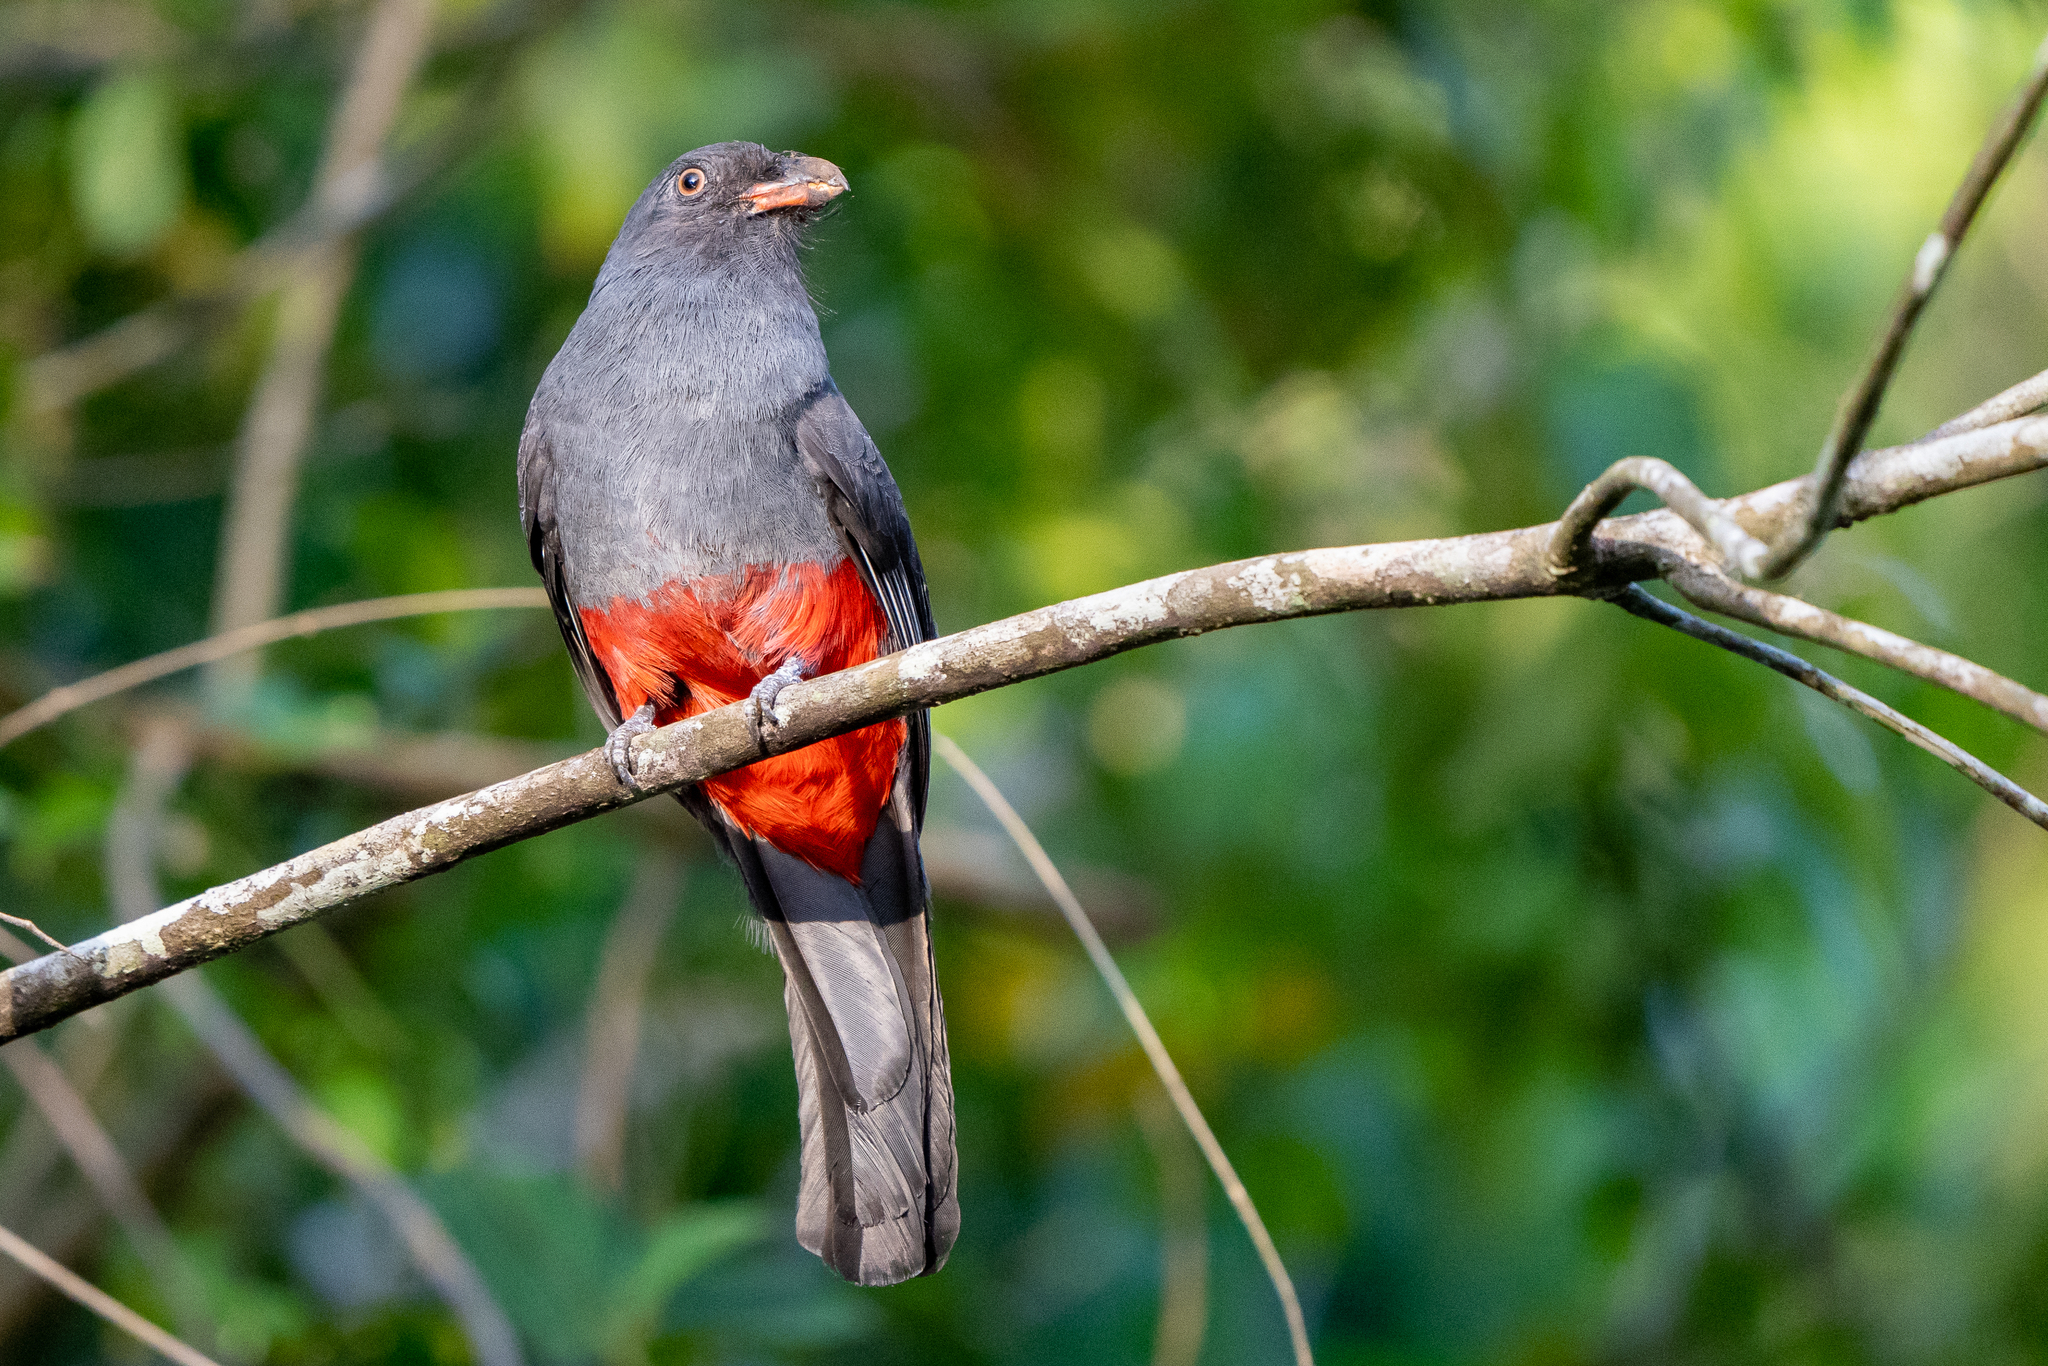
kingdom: Animalia
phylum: Chordata
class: Aves
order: Trogoniformes
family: Trogonidae
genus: Trogon
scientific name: Trogon massena
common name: Slaty-tailed trogon
